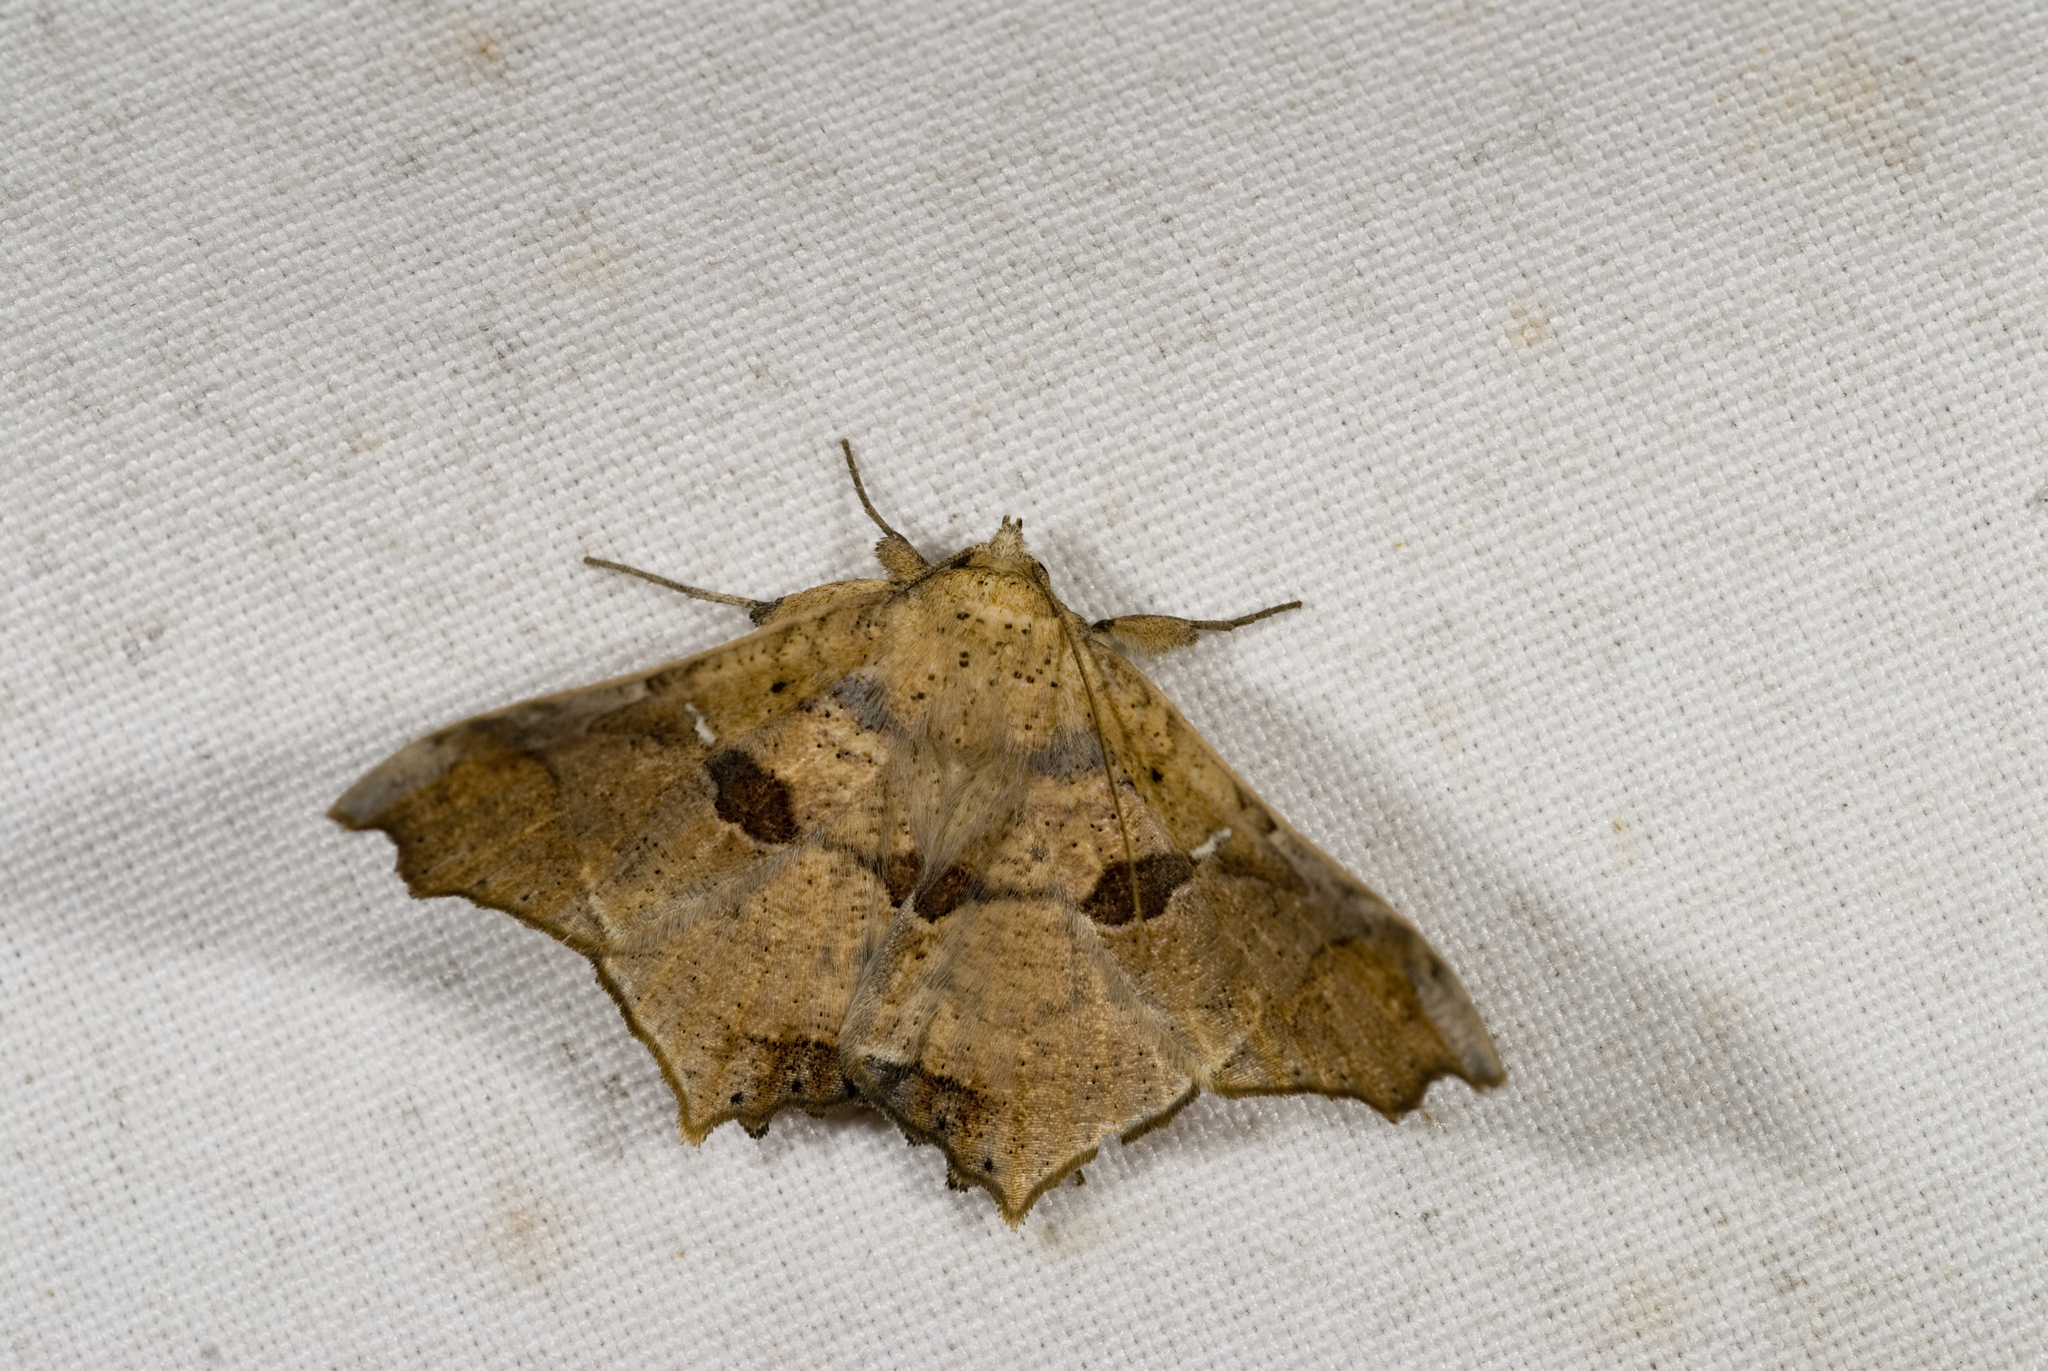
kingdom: Animalia
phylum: Arthropoda
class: Insecta
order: Lepidoptera
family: Erebidae
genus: Semiothisops
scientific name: Semiothisops macariata
